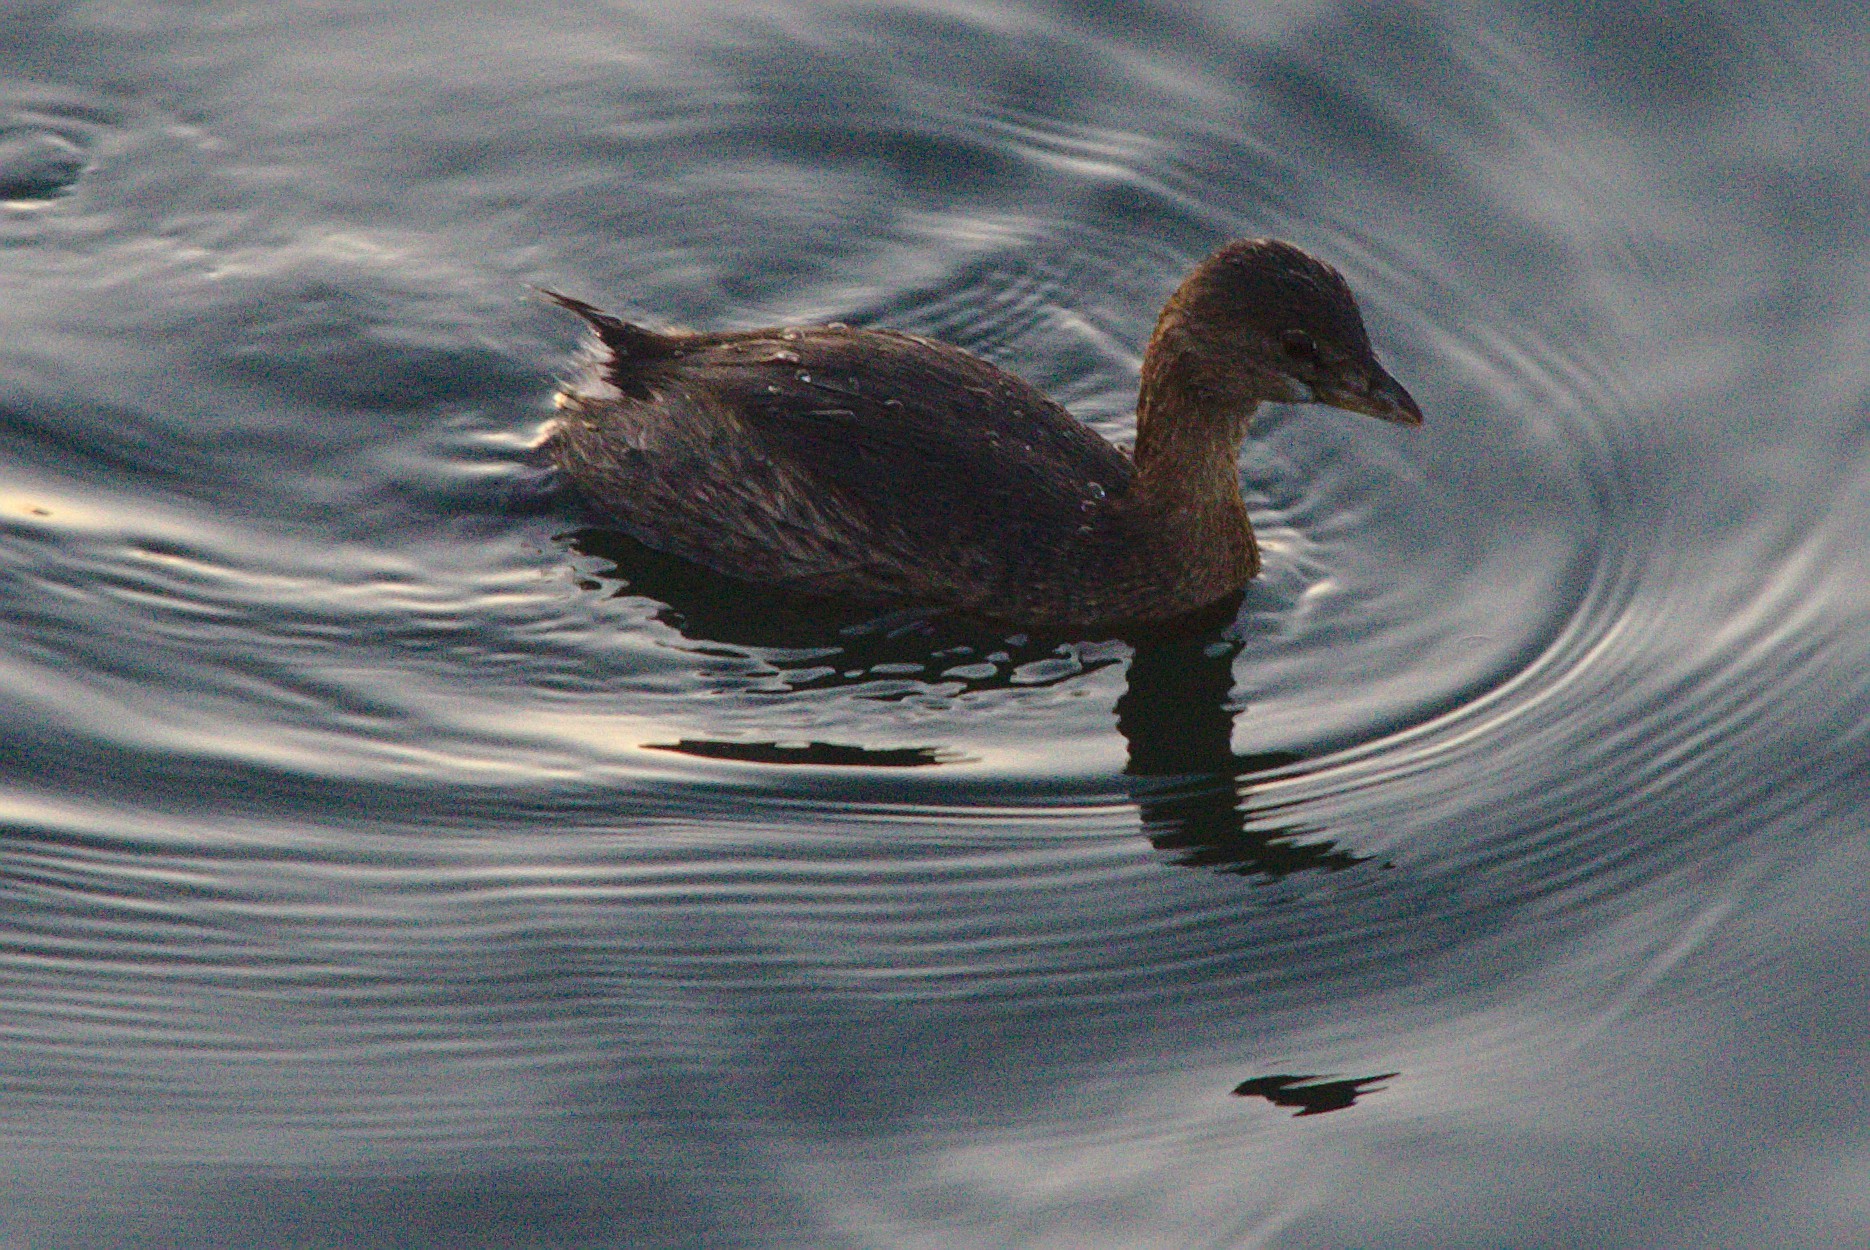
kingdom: Animalia
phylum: Chordata
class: Aves
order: Podicipediformes
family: Podicipedidae
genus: Podilymbus
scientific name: Podilymbus podiceps
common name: Pied-billed grebe
